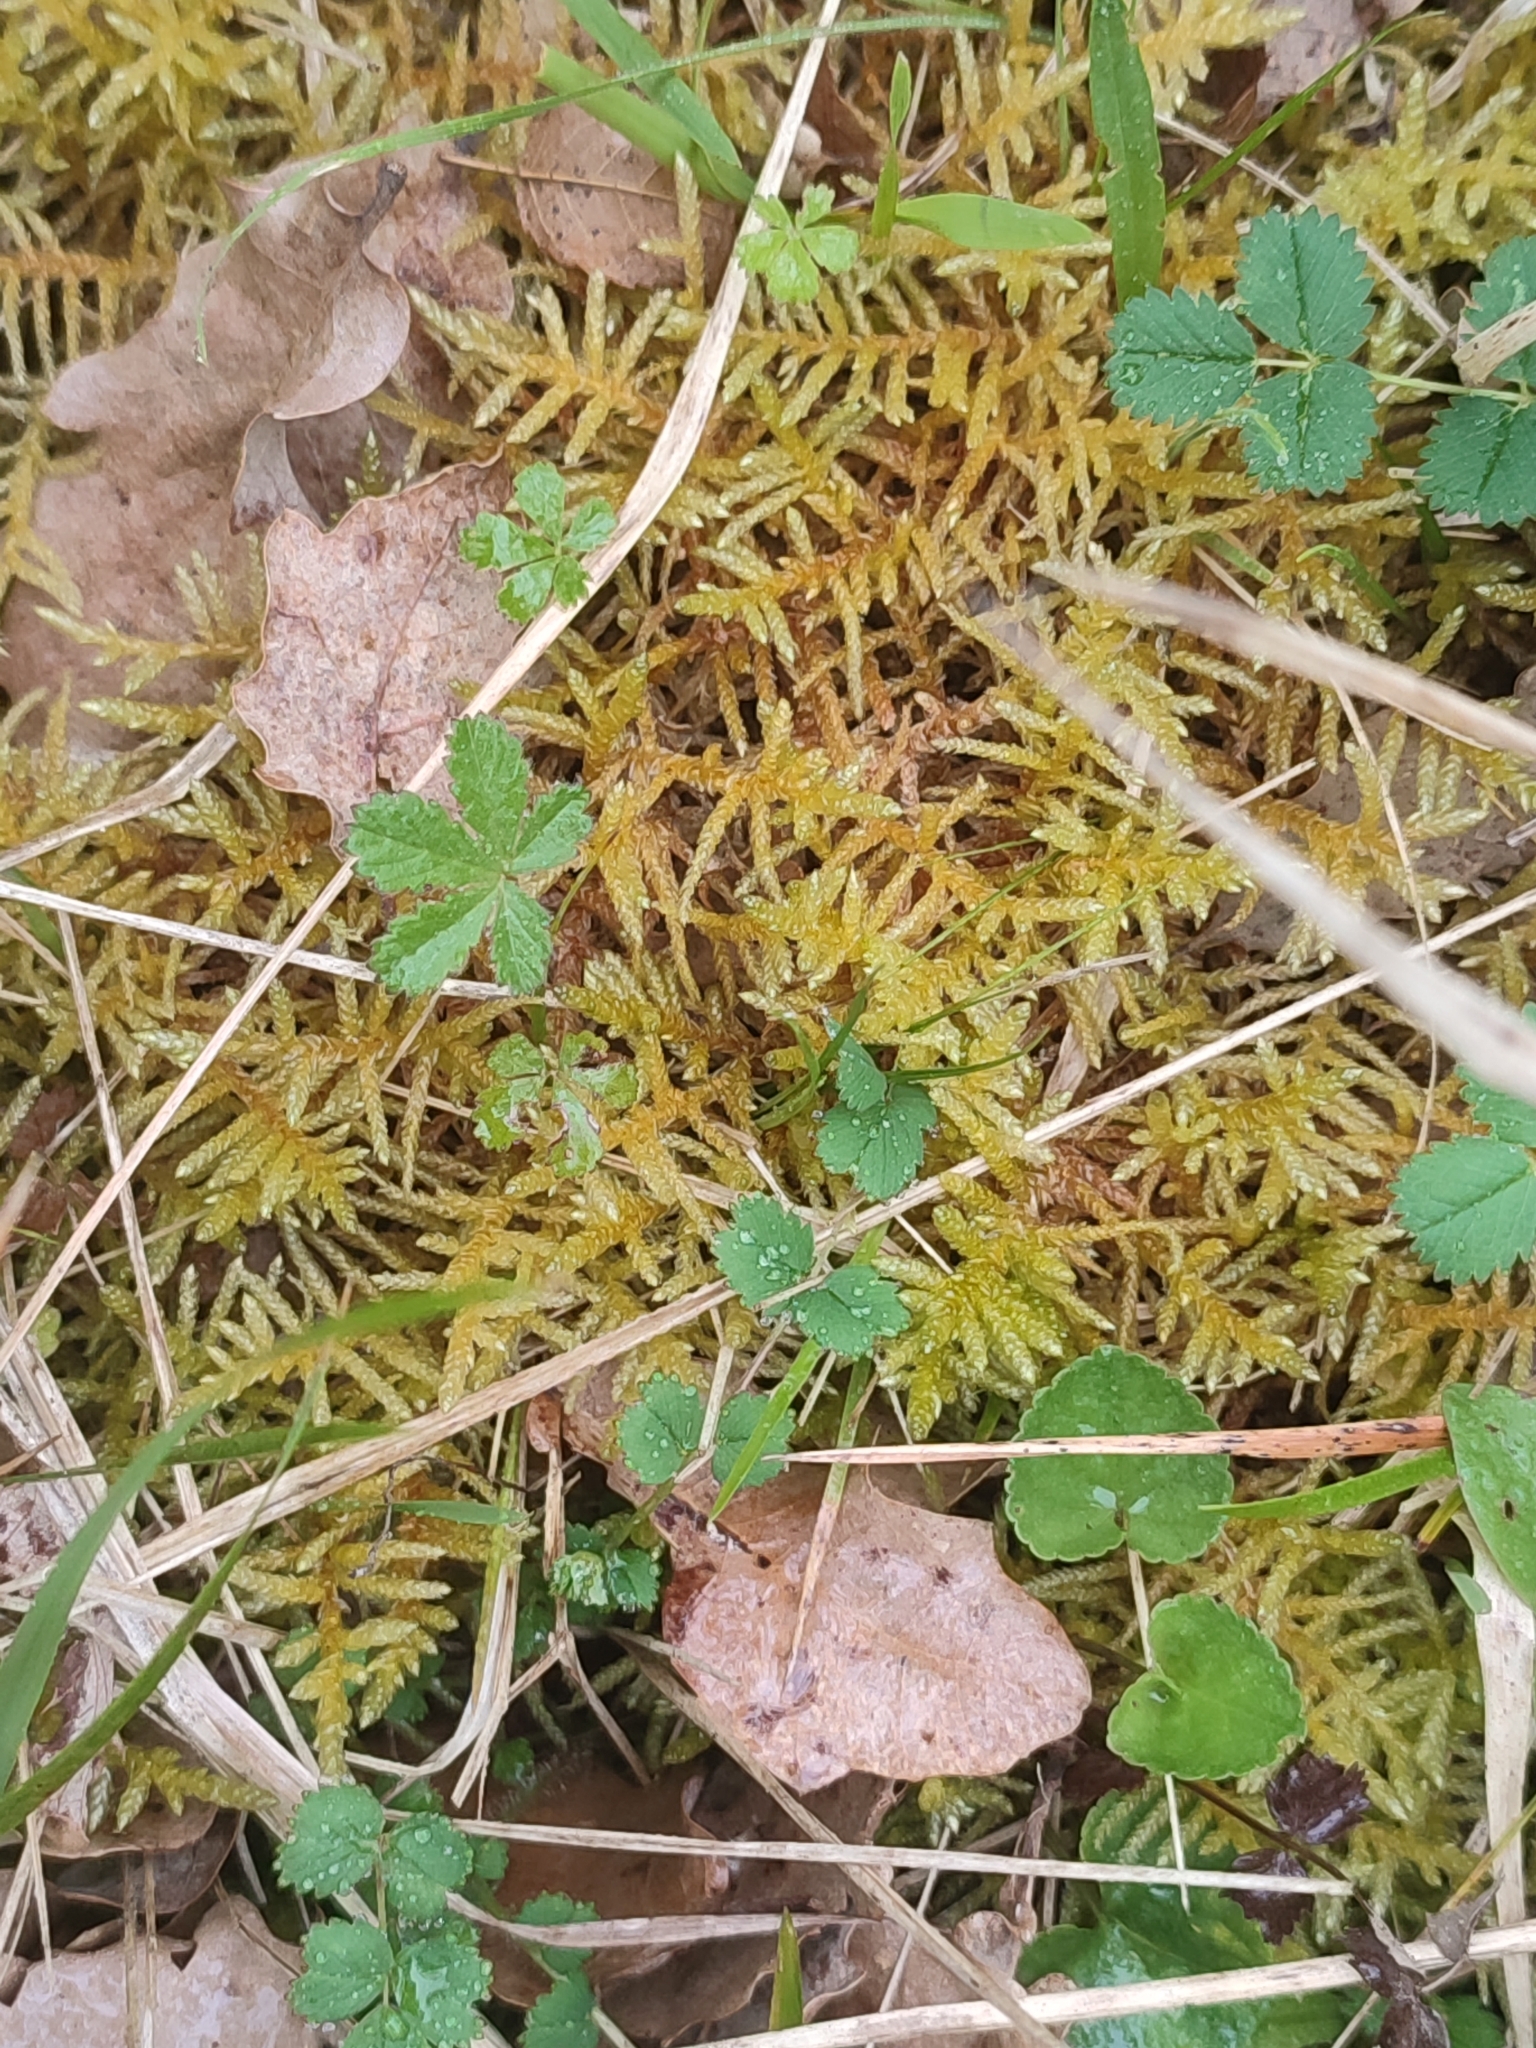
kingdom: Plantae
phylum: Bryophyta
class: Bryopsida
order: Hypnales
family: Brachytheciaceae
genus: Pseudoscleropodium
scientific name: Pseudoscleropodium purum
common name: Neat feather-moss
